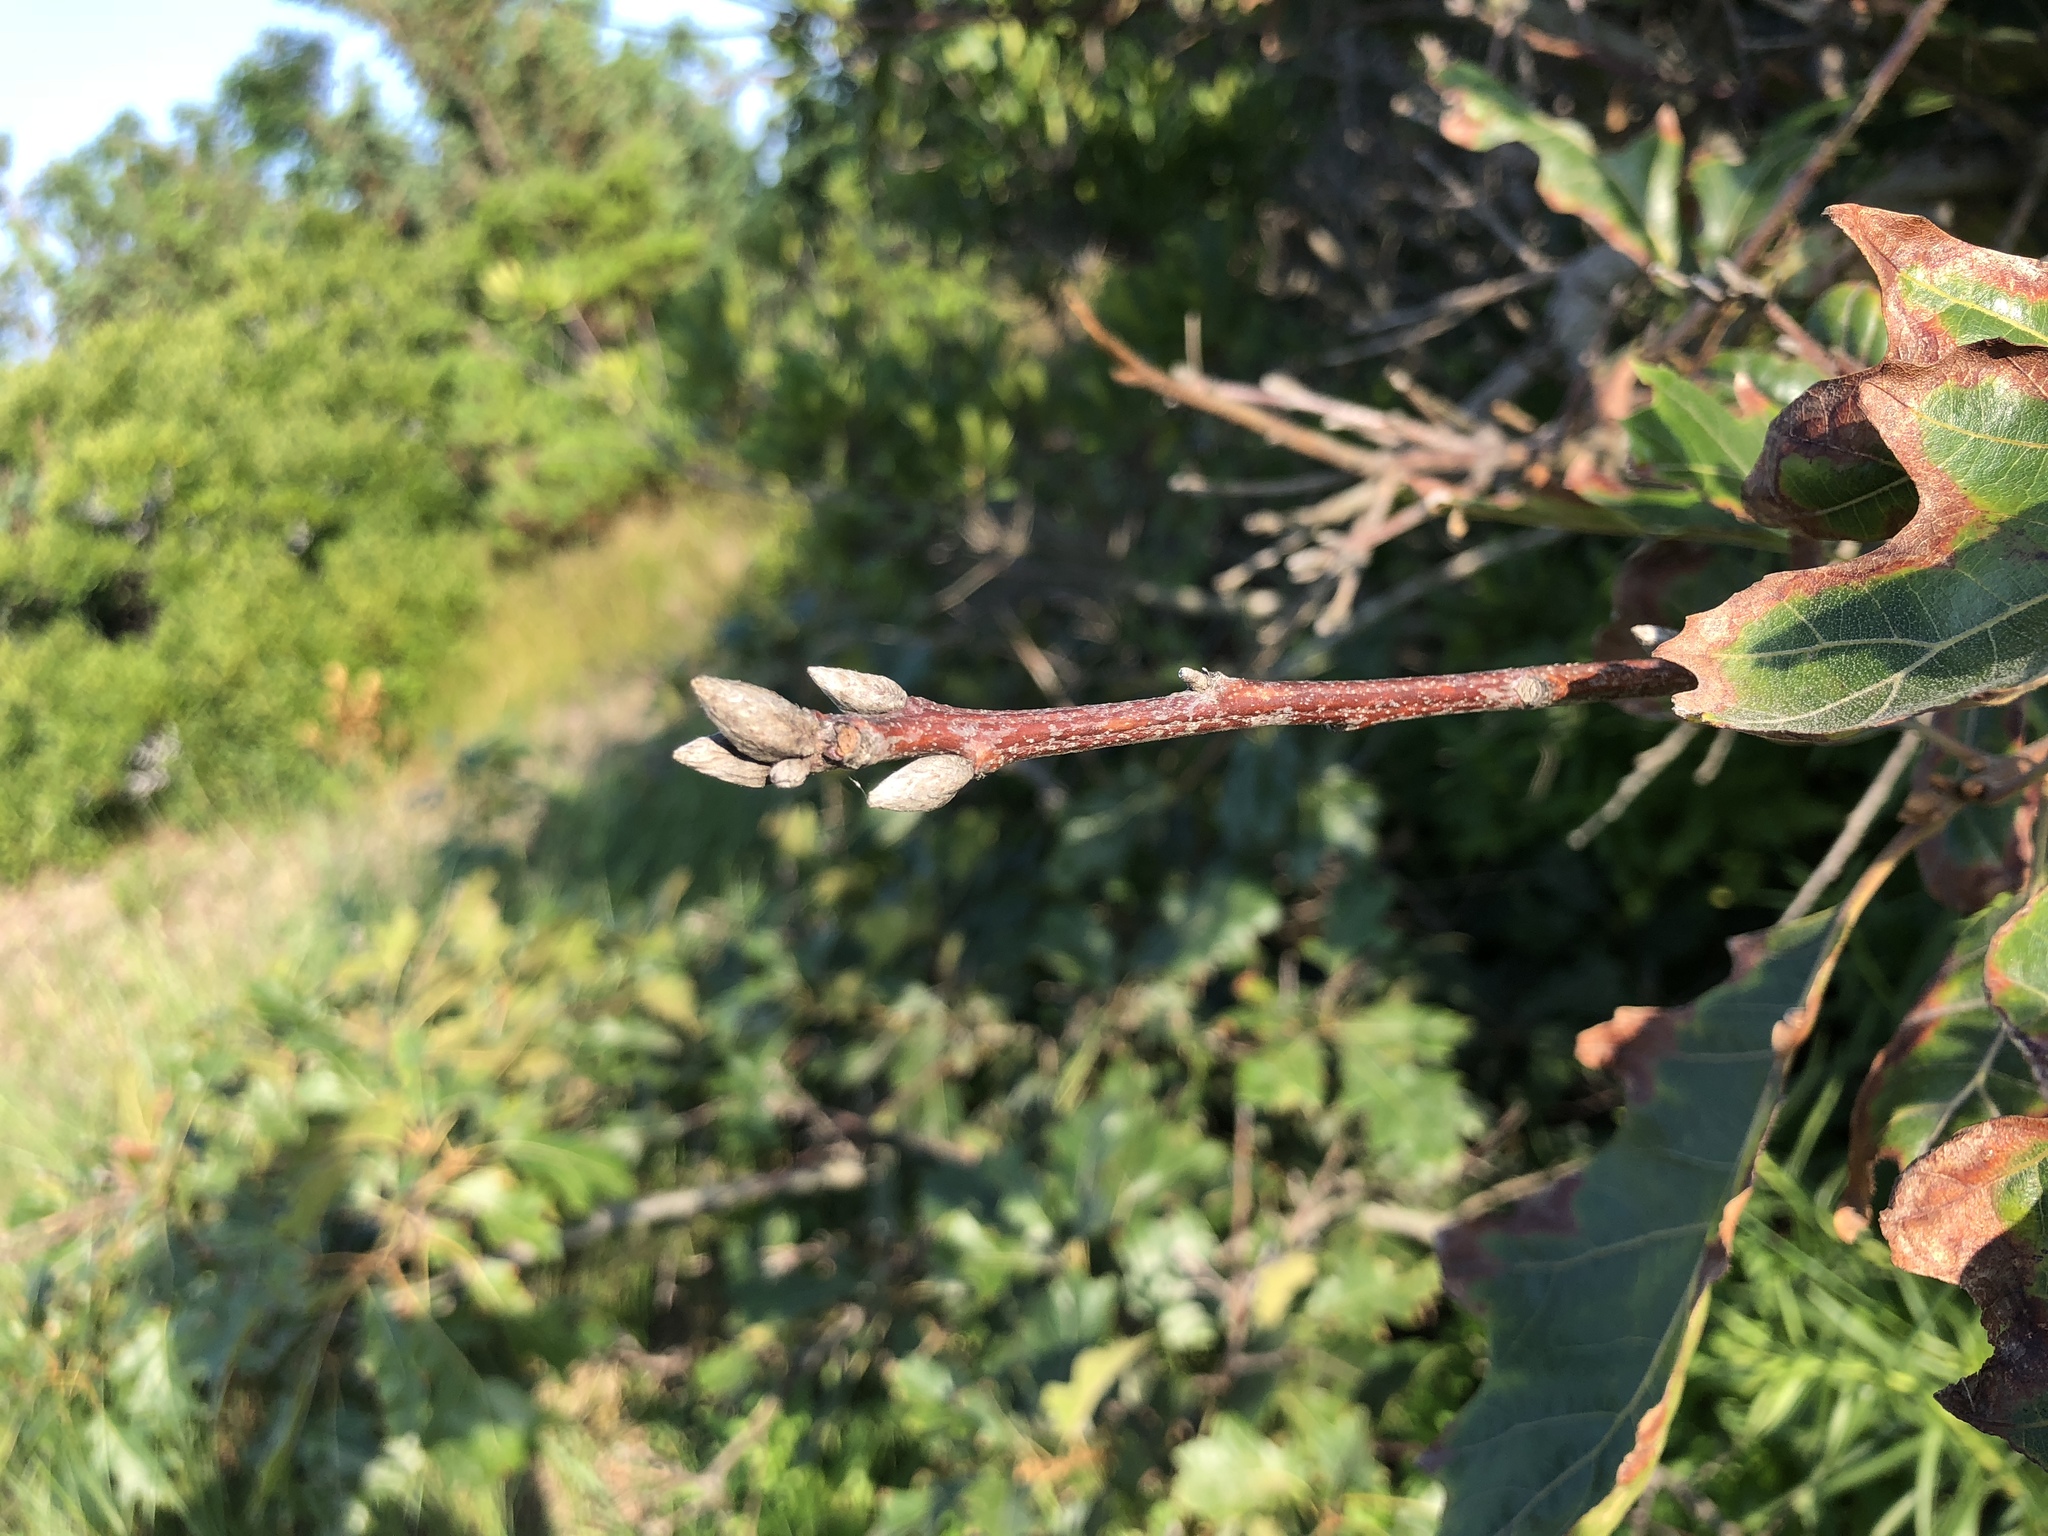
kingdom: Plantae
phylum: Tracheophyta
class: Magnoliopsida
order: Fagales
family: Fagaceae
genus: Quercus
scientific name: Quercus velutina
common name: Black oak
